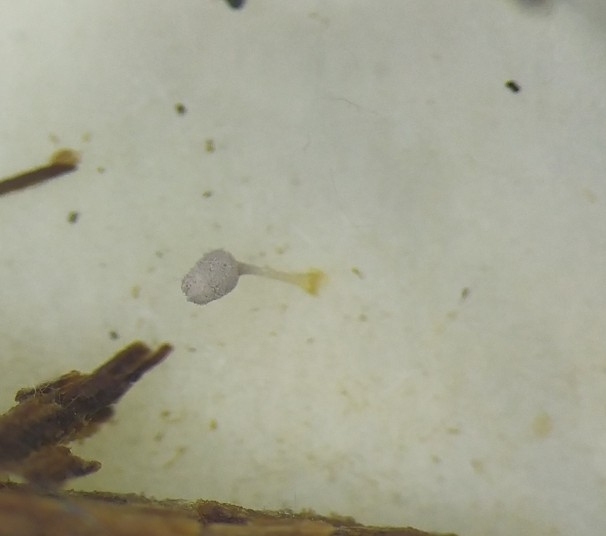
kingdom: Protozoa
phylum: Mycetozoa
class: Myxomycetes
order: Trichiales
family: Arcyriaceae
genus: Arcyria
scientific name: Arcyria cinerea
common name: White carnival candy slime mold
